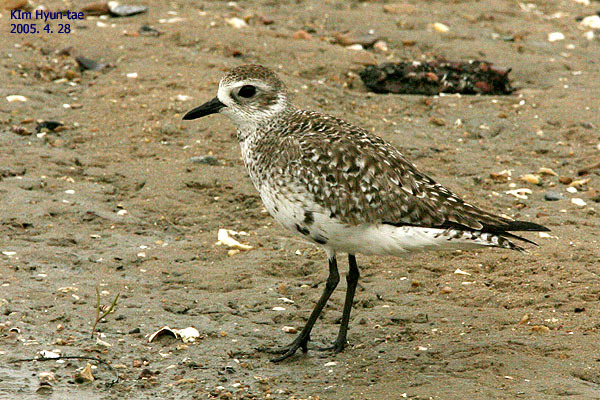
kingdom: Animalia
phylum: Chordata
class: Aves
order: Charadriiformes
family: Charadriidae
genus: Pluvialis
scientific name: Pluvialis squatarola
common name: Grey plover
